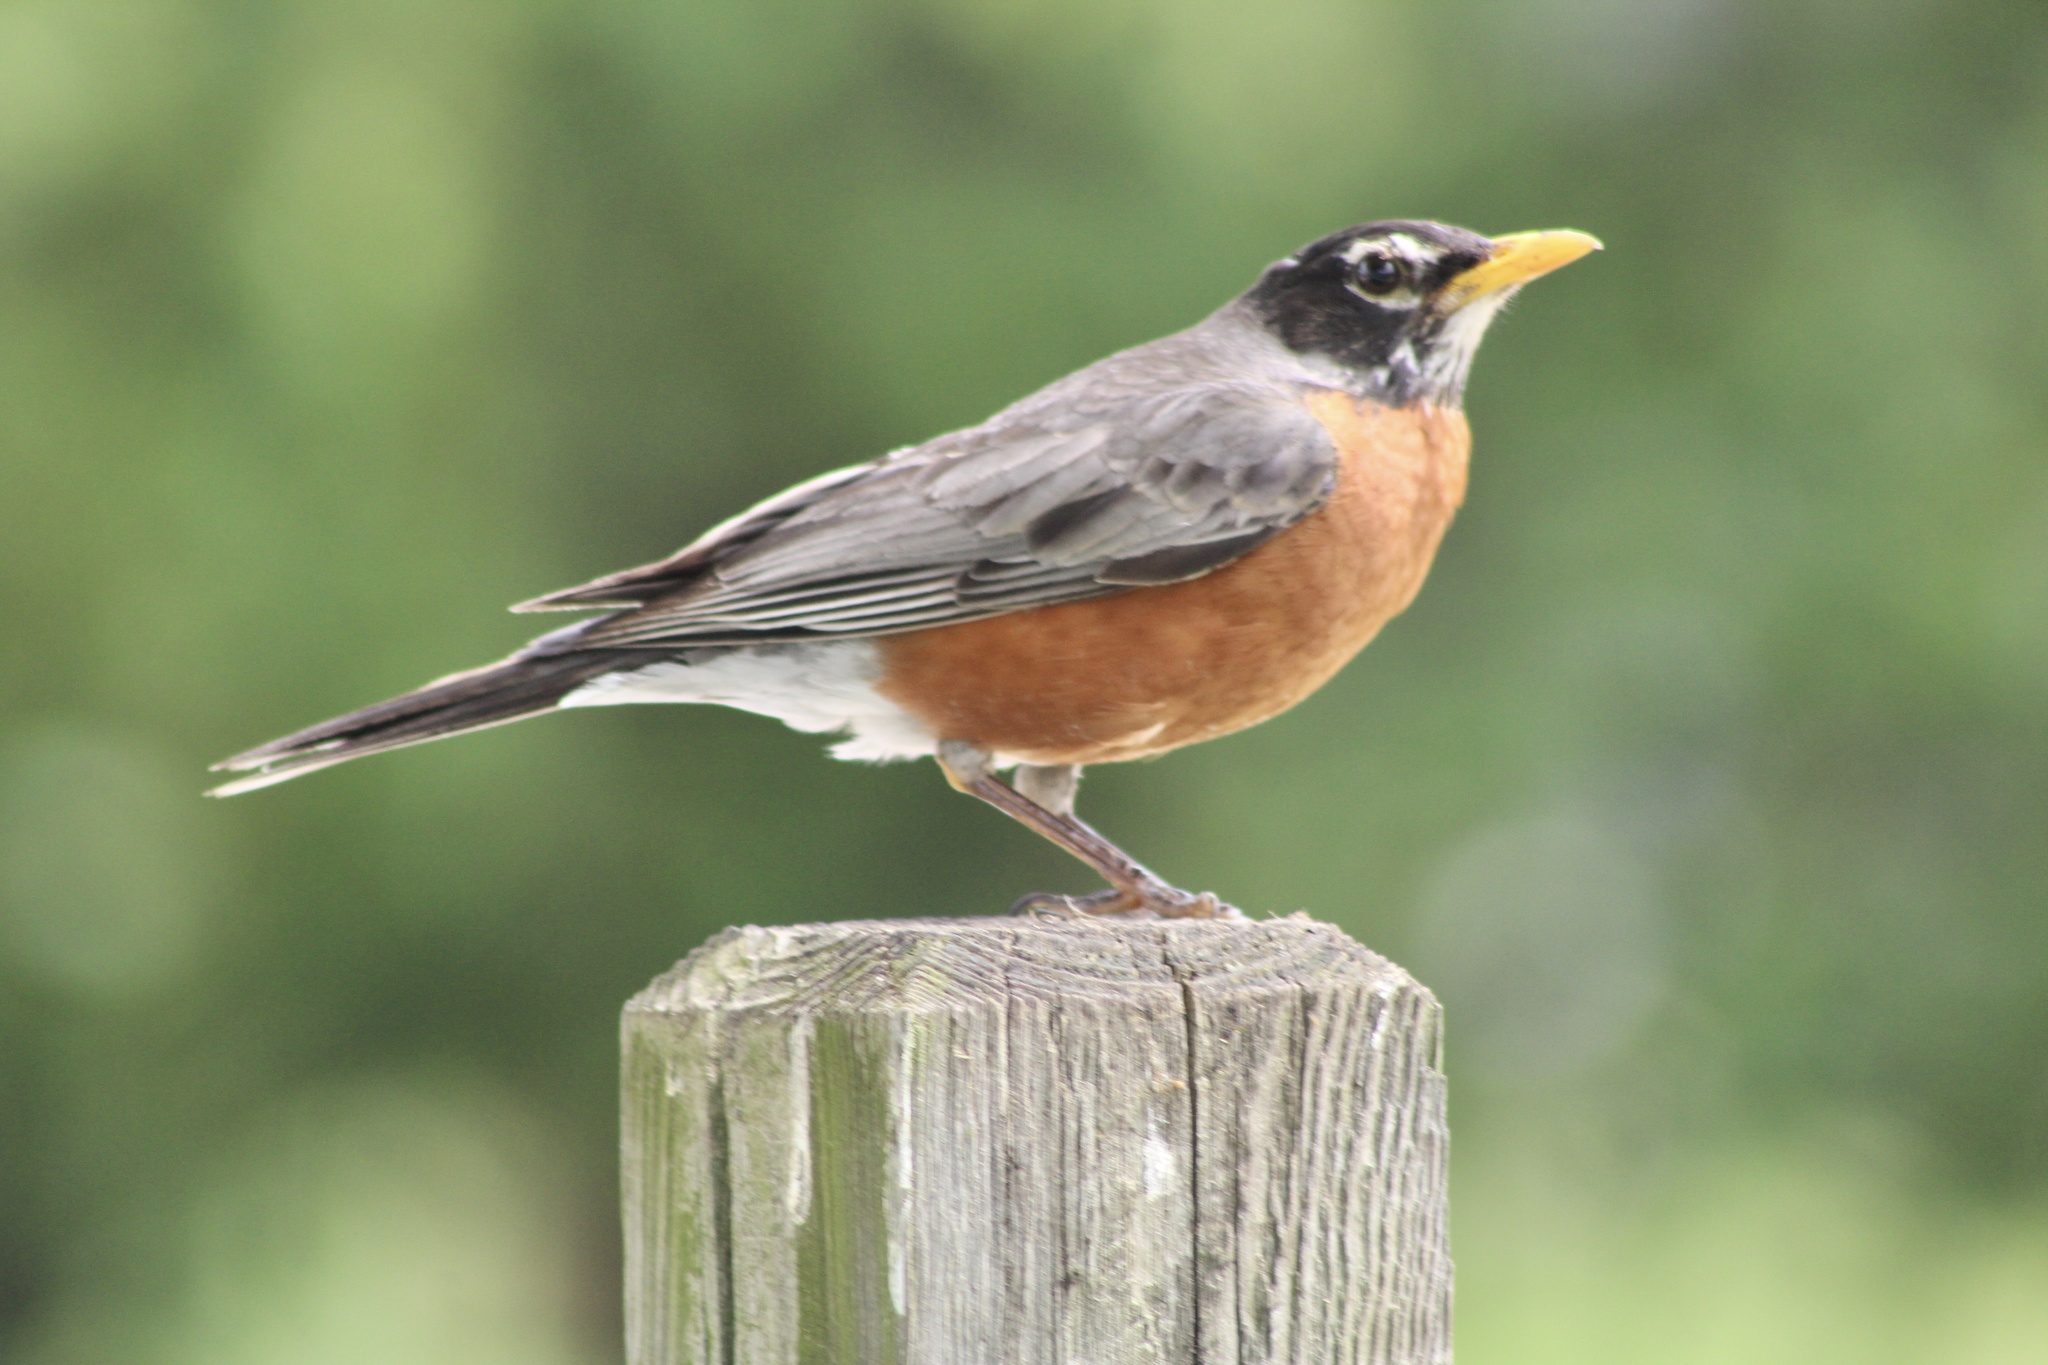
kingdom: Animalia
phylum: Chordata
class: Aves
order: Passeriformes
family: Turdidae
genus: Turdus
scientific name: Turdus migratorius
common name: American robin
